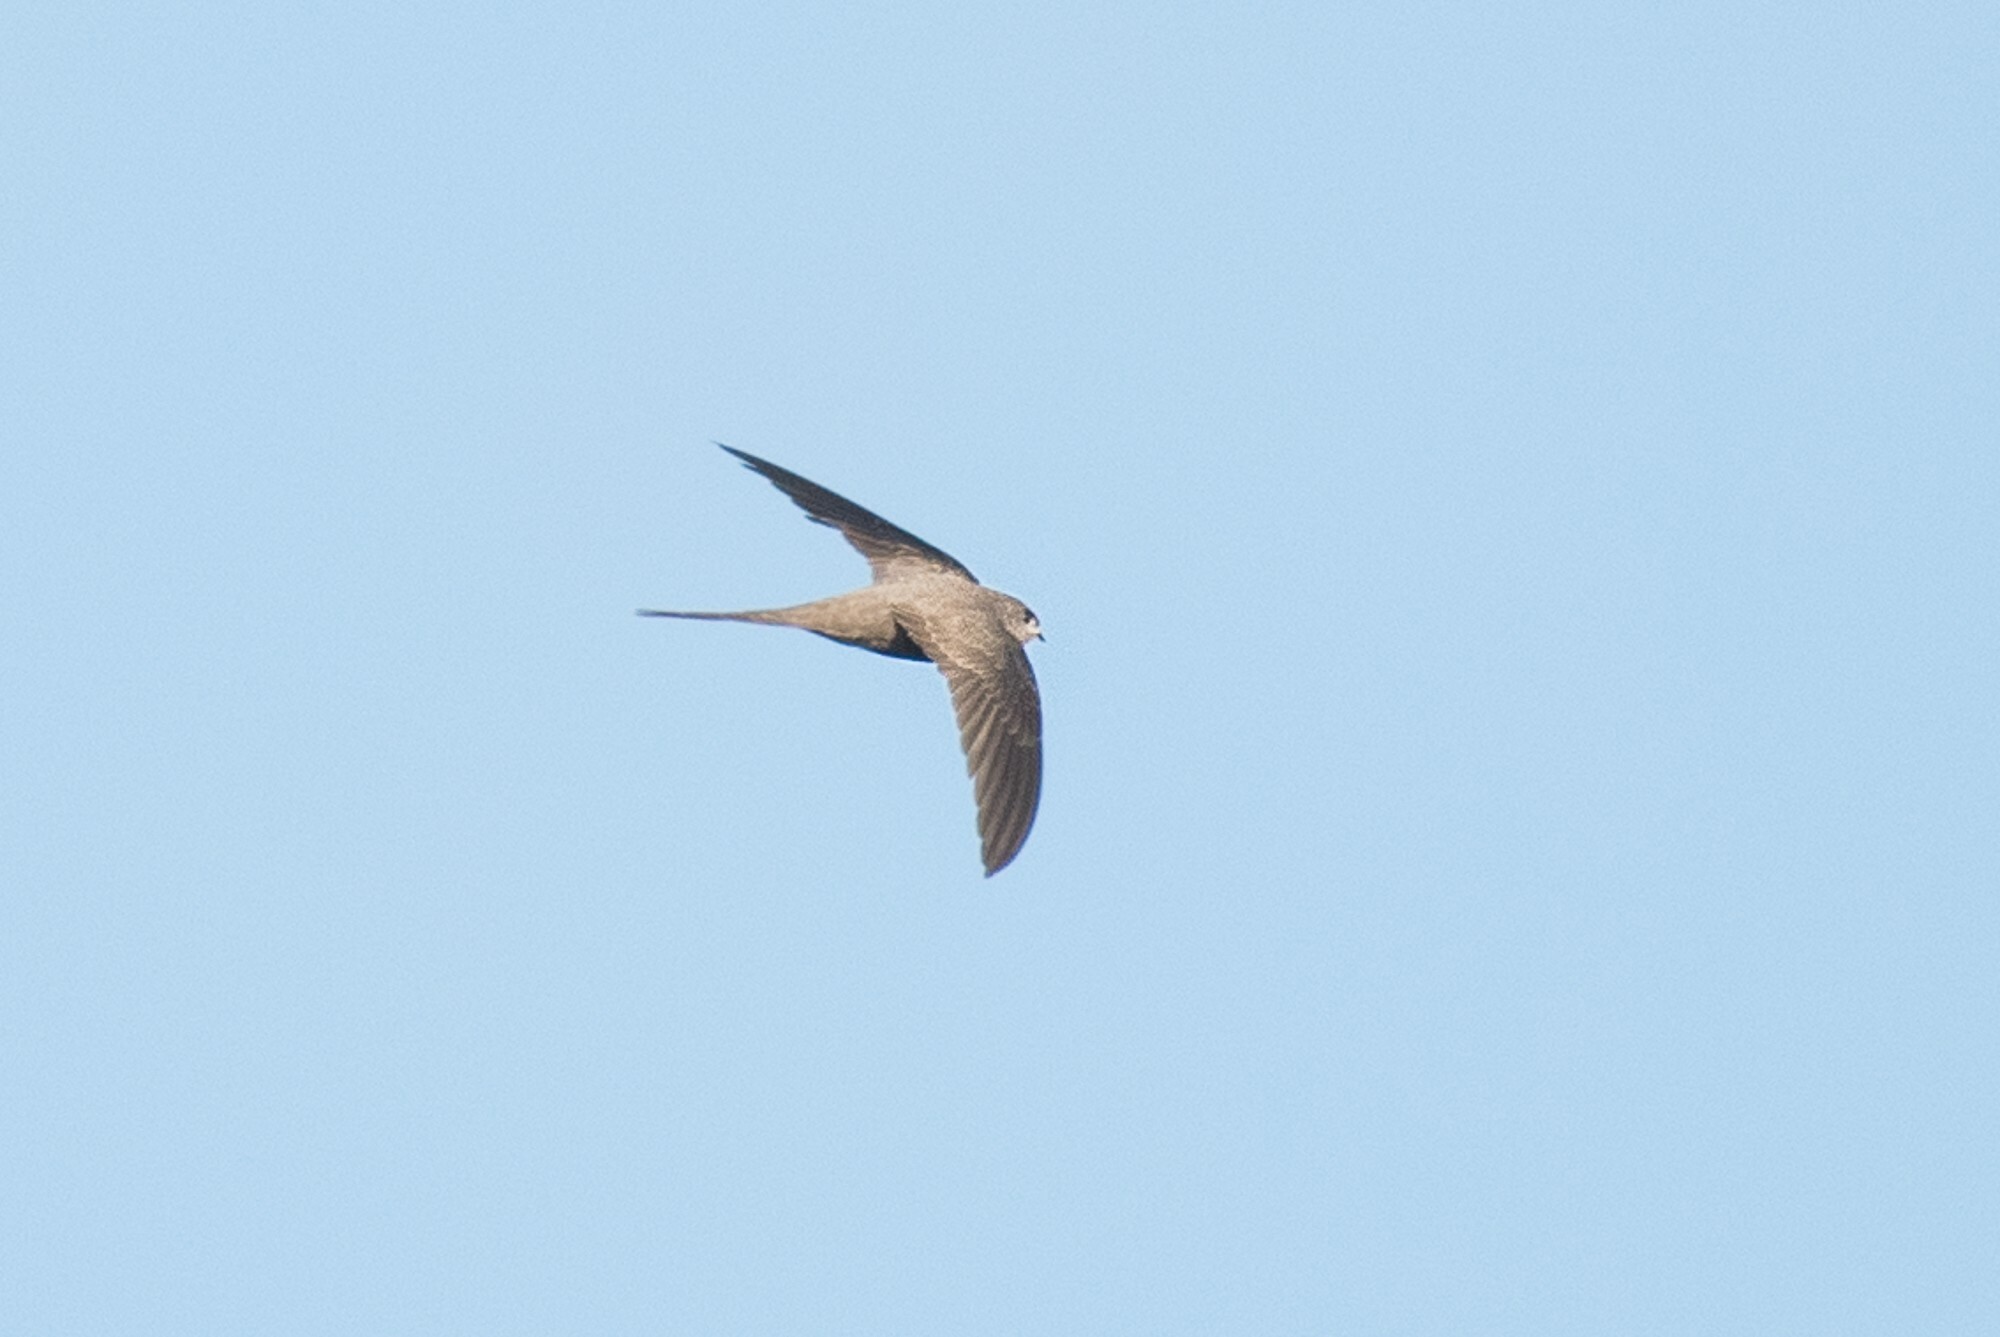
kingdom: Animalia
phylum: Chordata
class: Aves
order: Apodiformes
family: Apodidae
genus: Cypsiurus
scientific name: Cypsiurus parvus
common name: African palm swift
